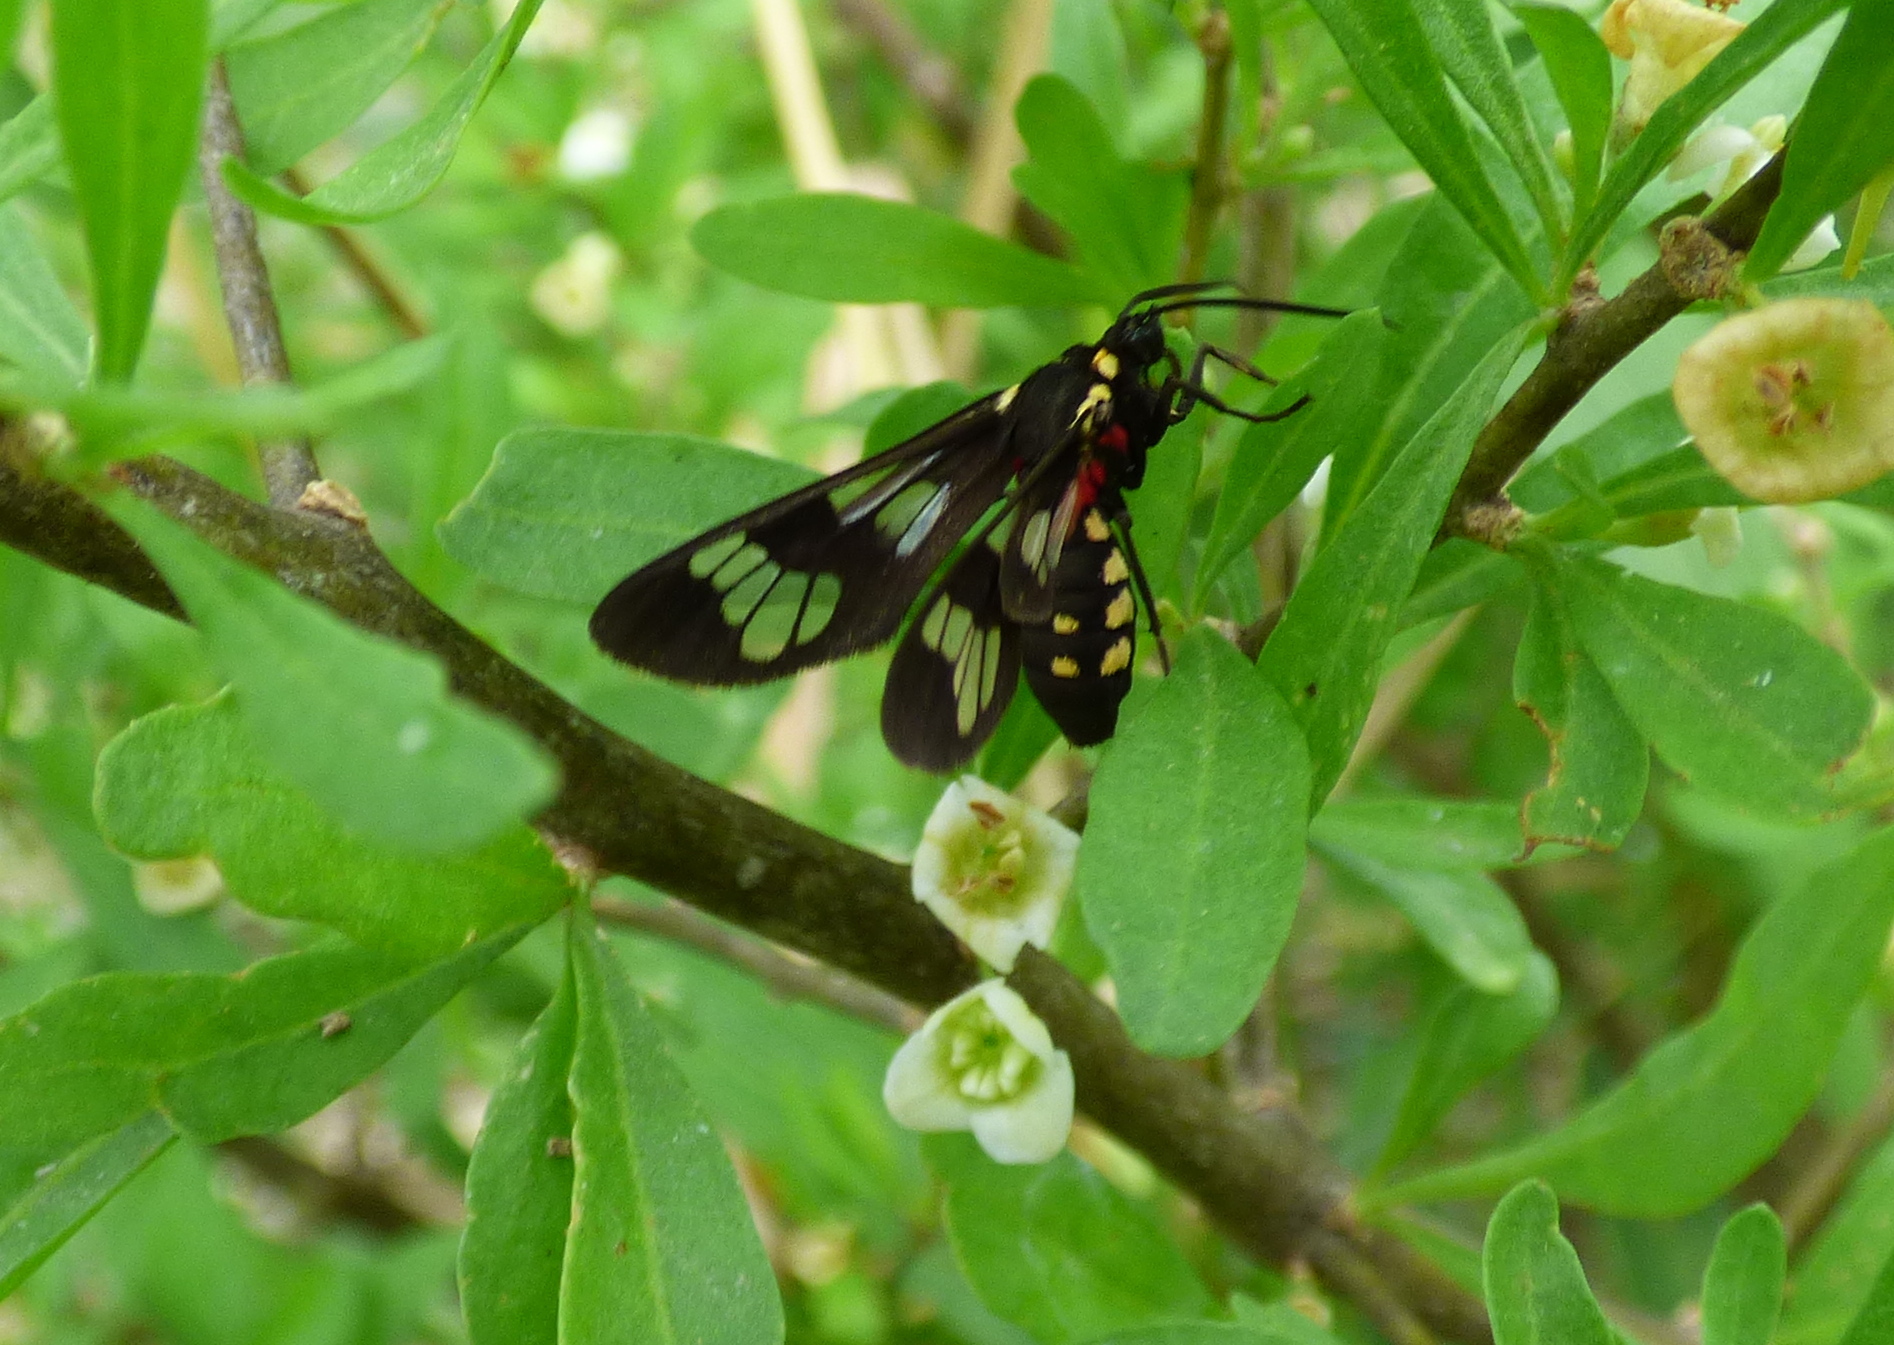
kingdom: Animalia
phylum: Arthropoda
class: Insecta
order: Lepidoptera
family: Erebidae
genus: Eurata
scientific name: Eurata hermione
